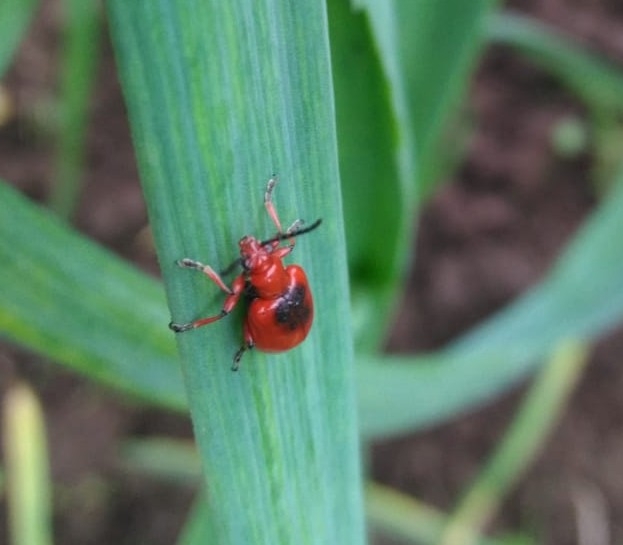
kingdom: Animalia
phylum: Arthropoda
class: Insecta
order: Coleoptera
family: Chrysomelidae
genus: Lilioceris
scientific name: Lilioceris merdigera
